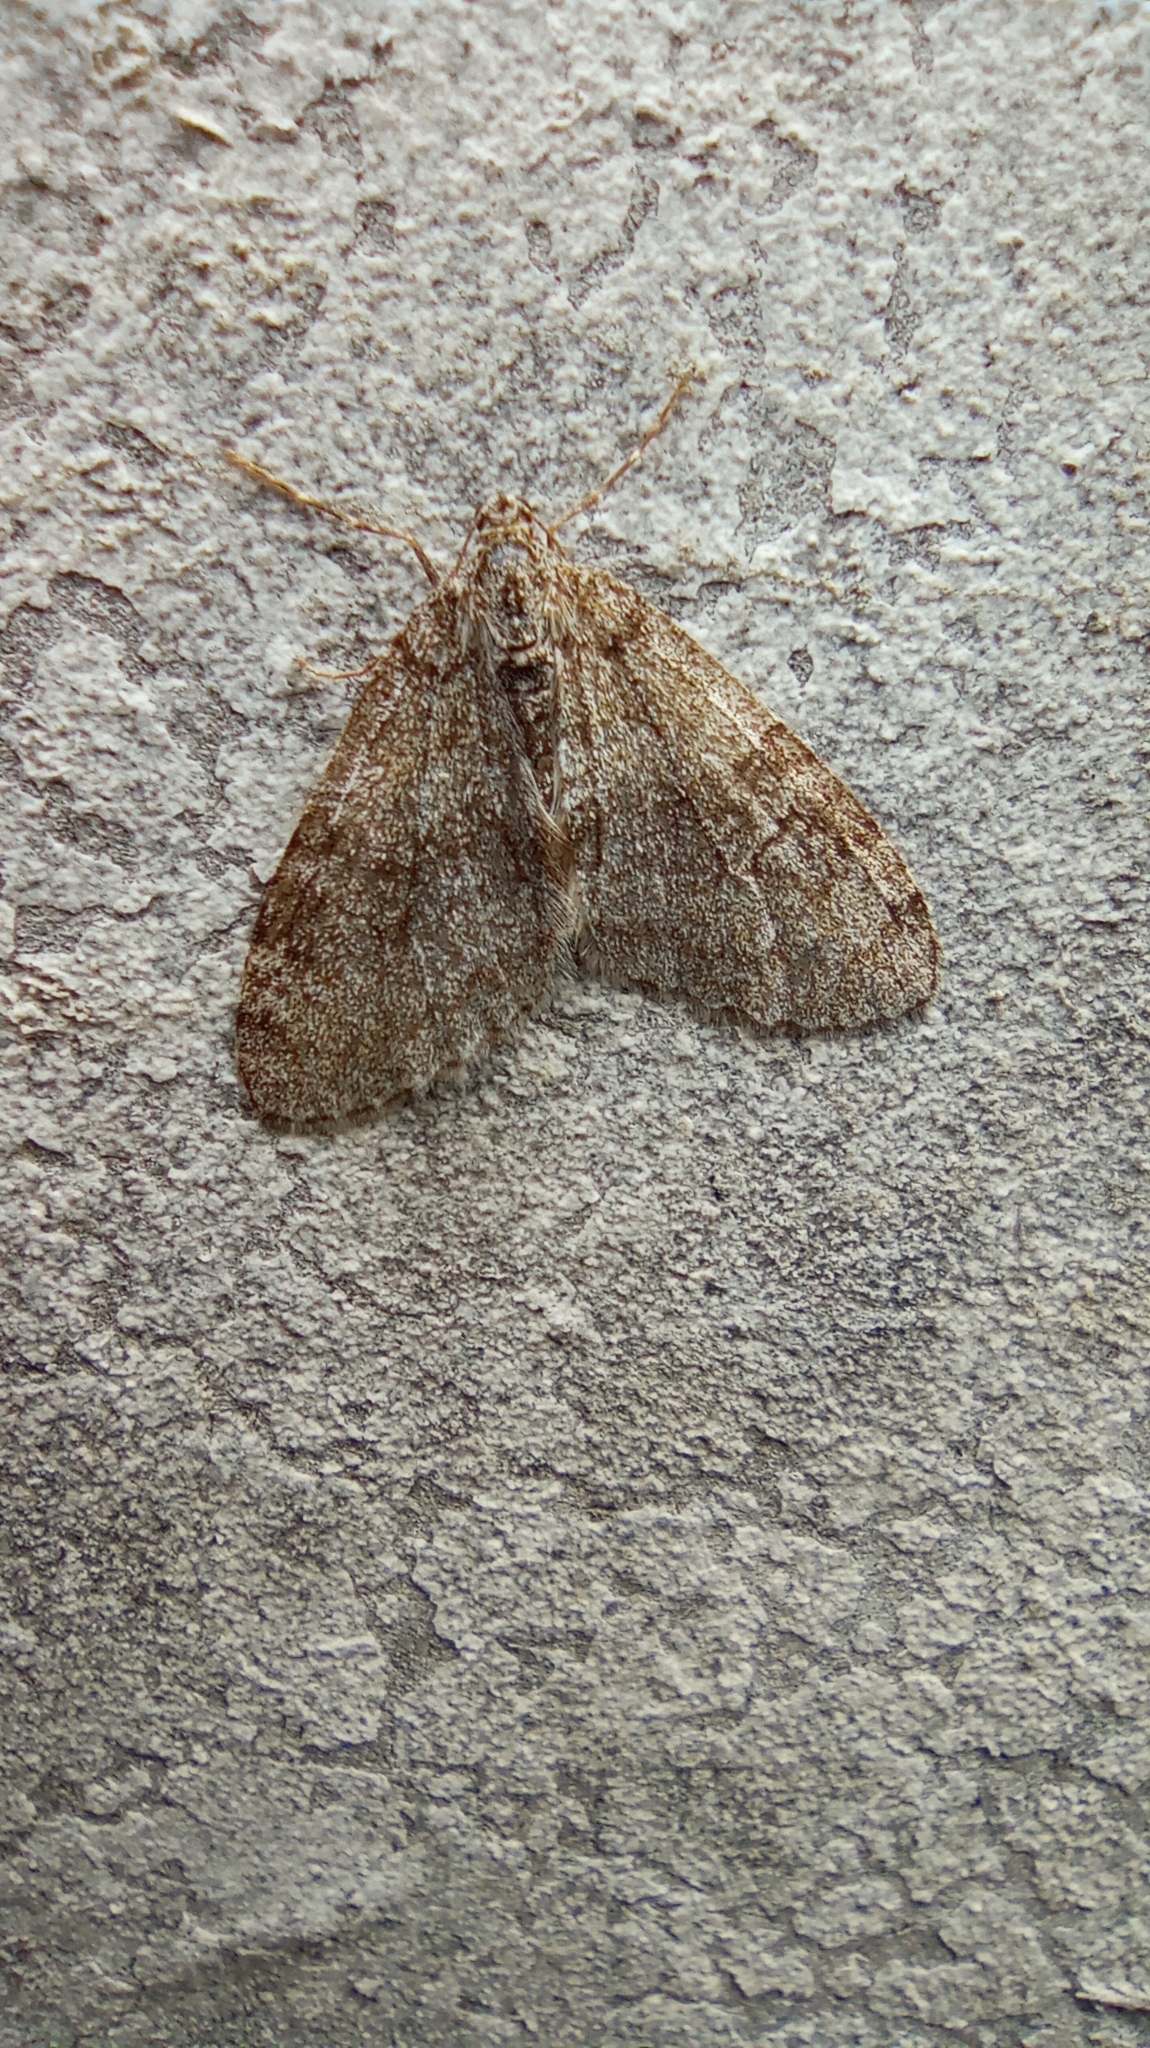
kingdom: Animalia
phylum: Arthropoda
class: Insecta
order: Lepidoptera
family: Geometridae
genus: Trichopteryx
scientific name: Trichopteryx carpinata
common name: Early tooth-striped
